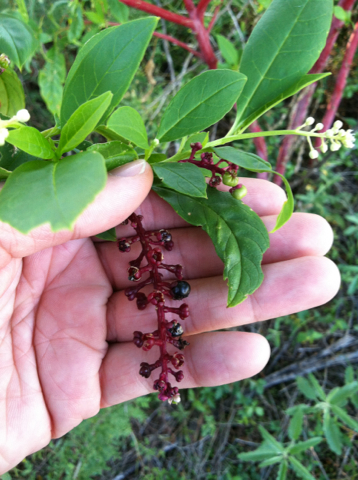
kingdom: Plantae
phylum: Tracheophyta
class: Magnoliopsida
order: Caryophyllales
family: Phytolaccaceae
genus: Phytolacca
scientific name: Phytolacca americana
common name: American pokeweed
